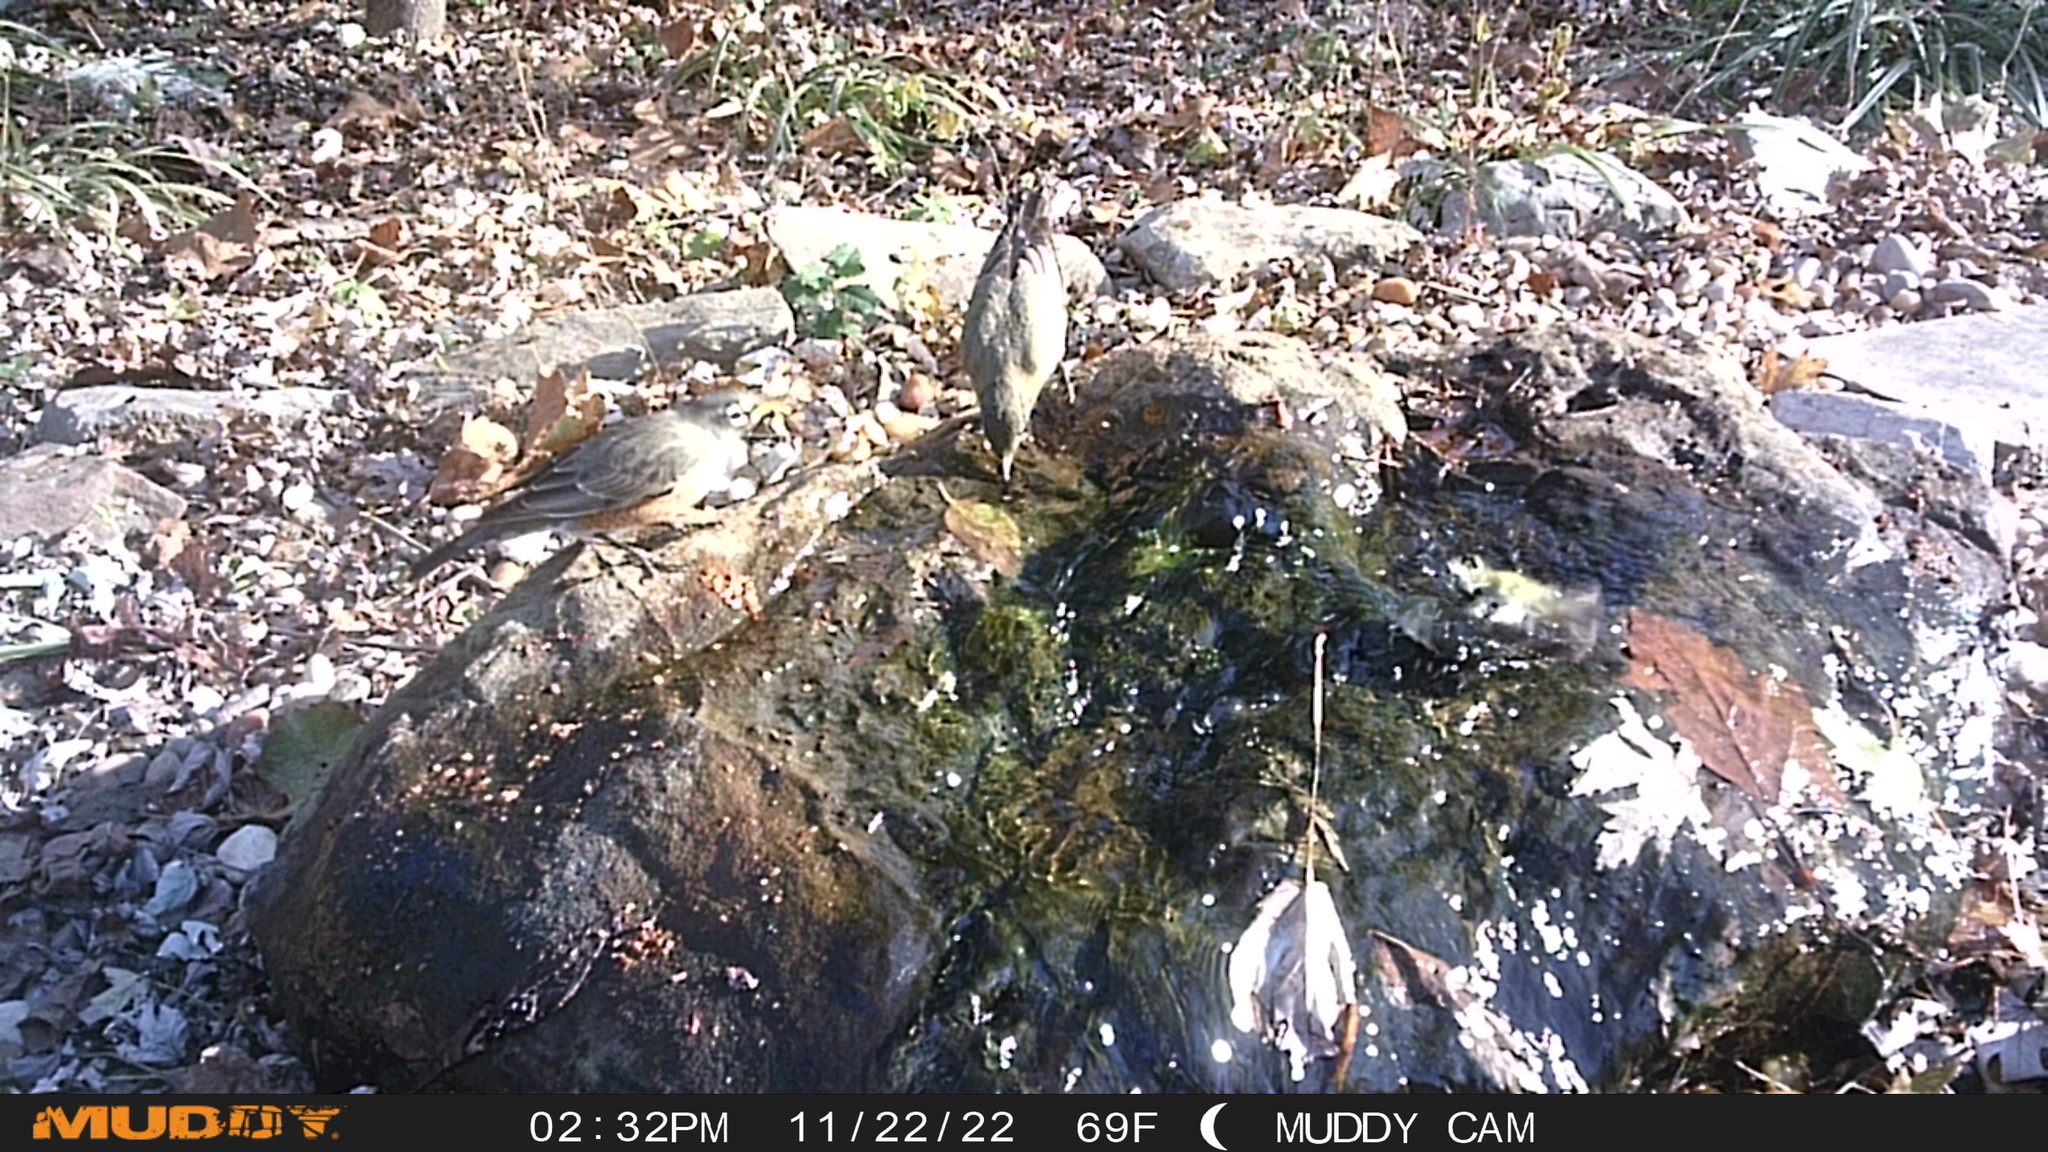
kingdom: Animalia
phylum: Chordata
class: Aves
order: Passeriformes
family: Turdidae
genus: Turdus
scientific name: Turdus migratorius
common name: American robin
